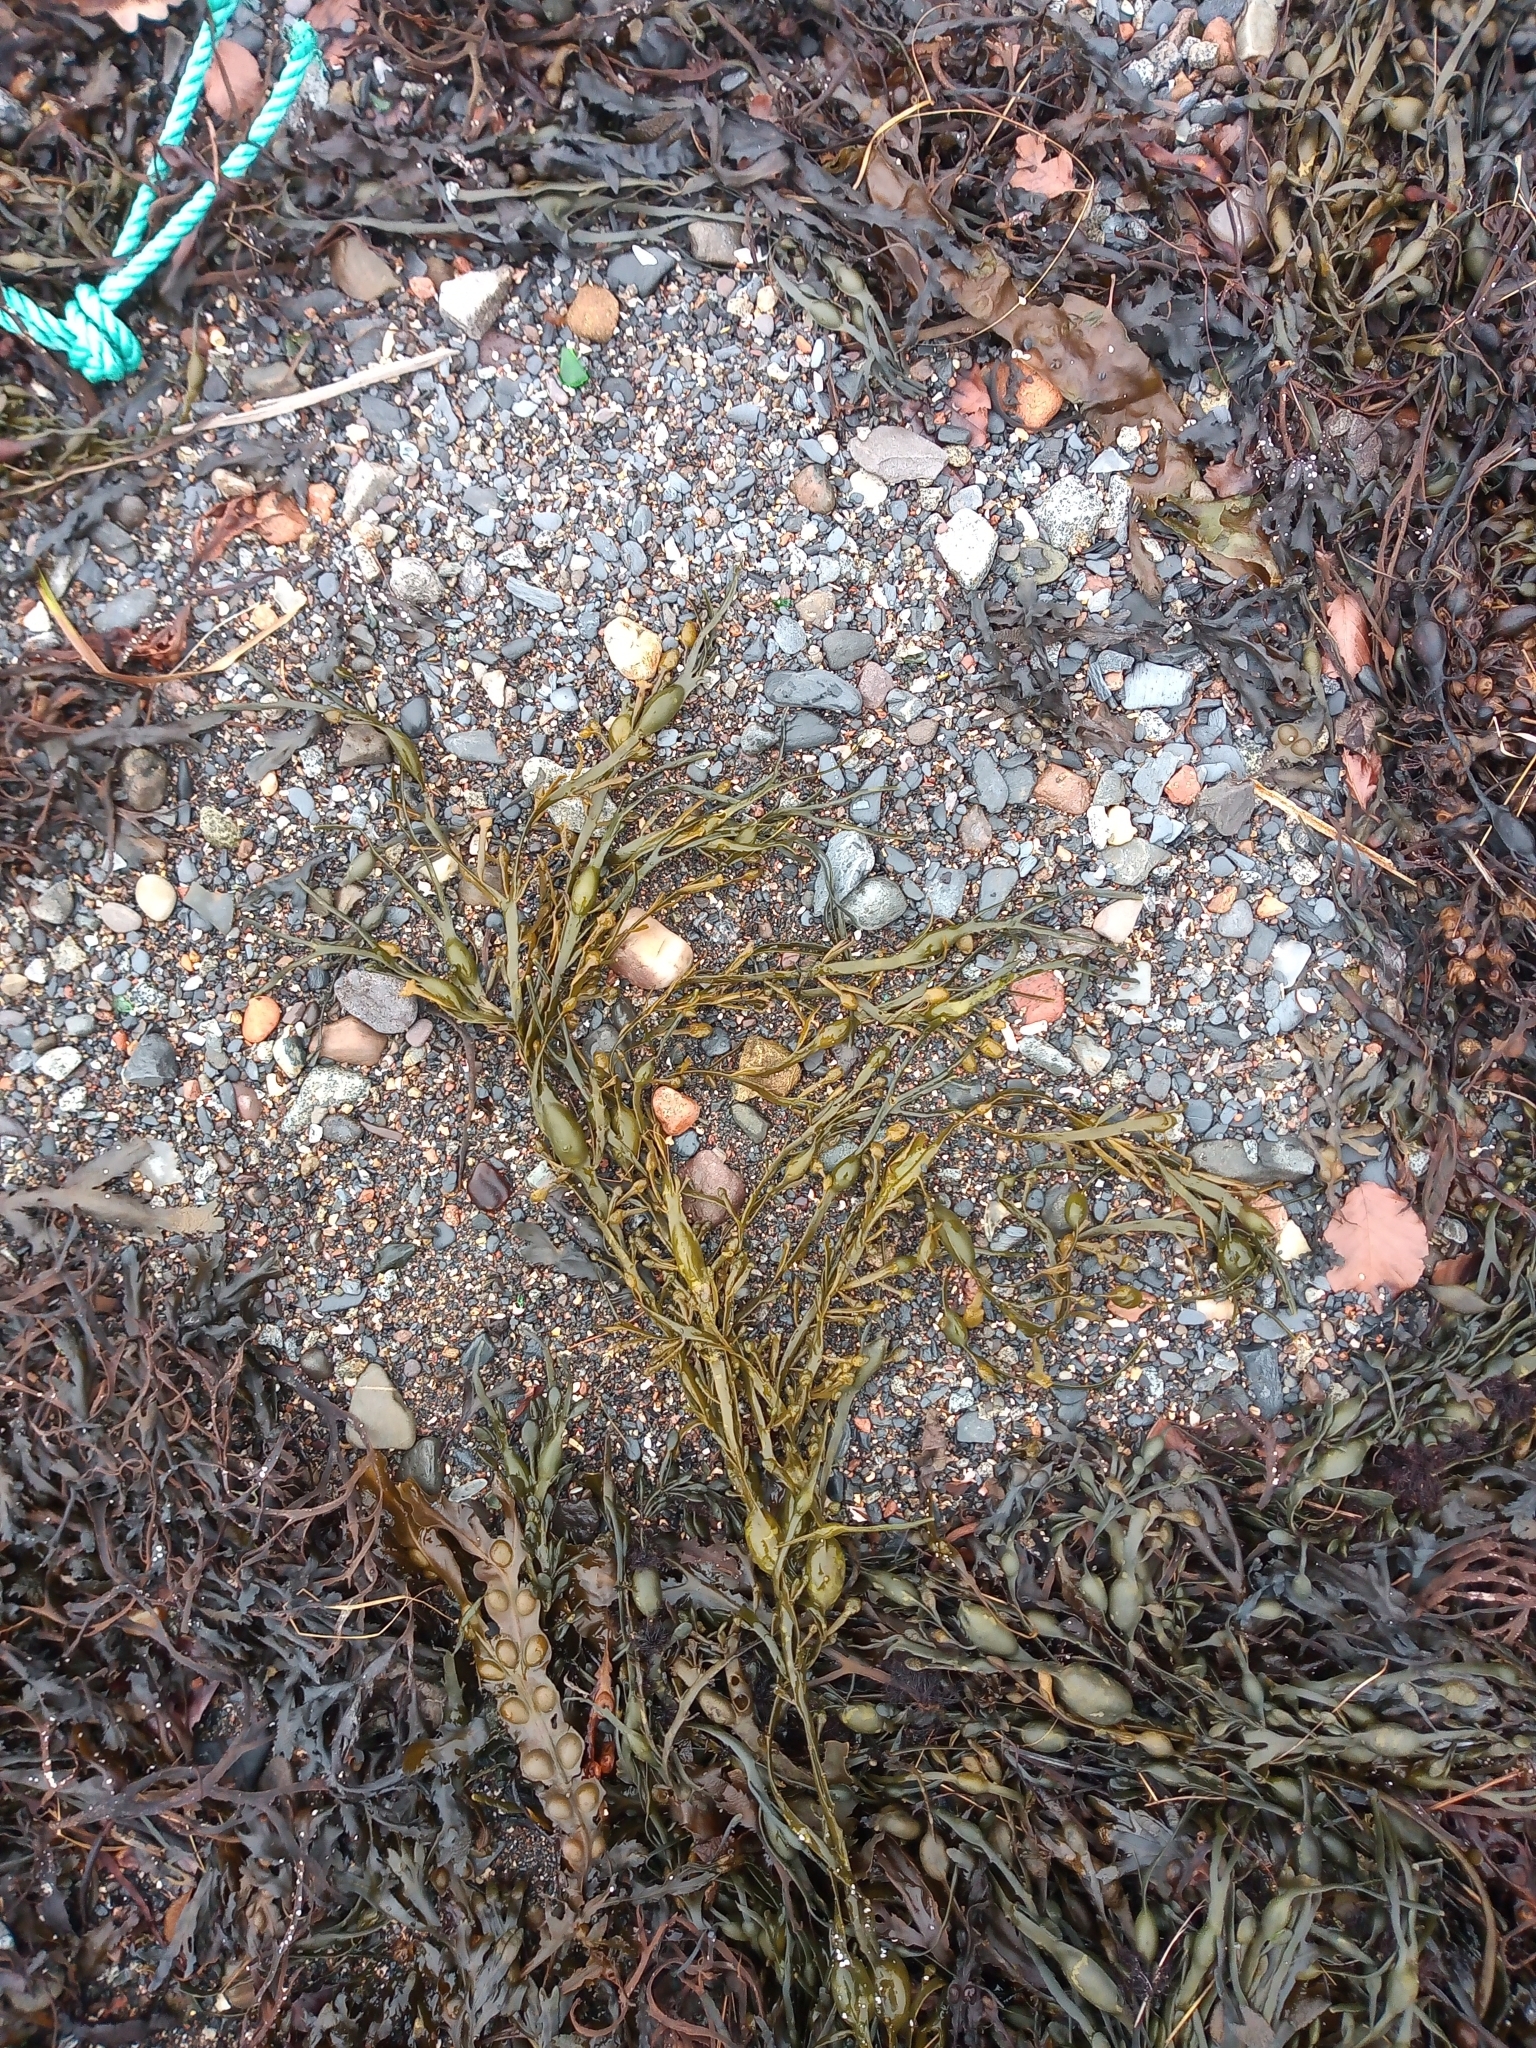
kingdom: Chromista
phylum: Ochrophyta
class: Phaeophyceae
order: Fucales
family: Fucaceae
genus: Ascophyllum
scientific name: Ascophyllum nodosum
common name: Knotted wrack
